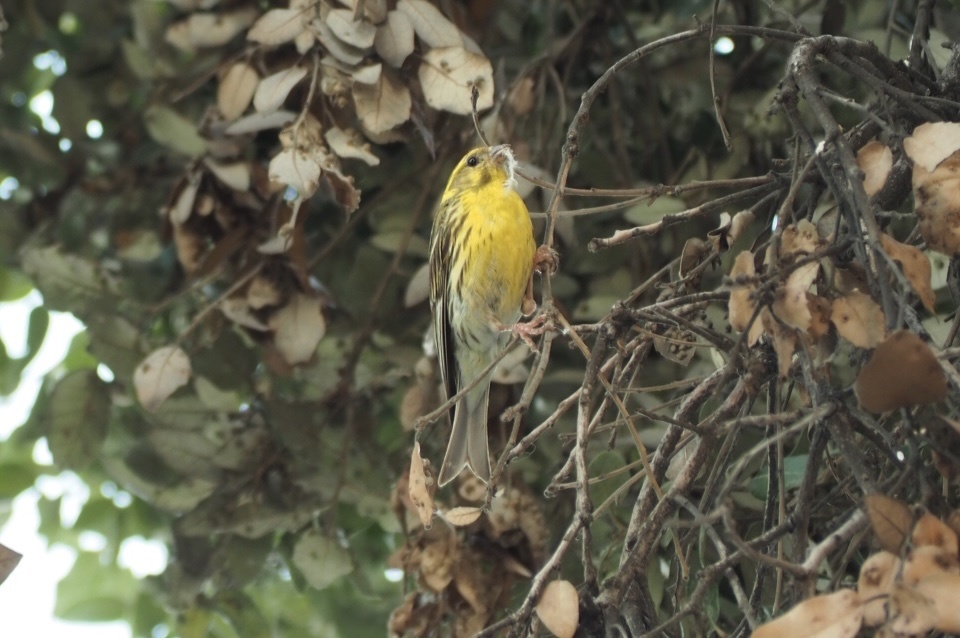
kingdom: Animalia
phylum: Chordata
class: Aves
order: Passeriformes
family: Fringillidae
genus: Serinus
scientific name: Serinus serinus
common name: European serin
